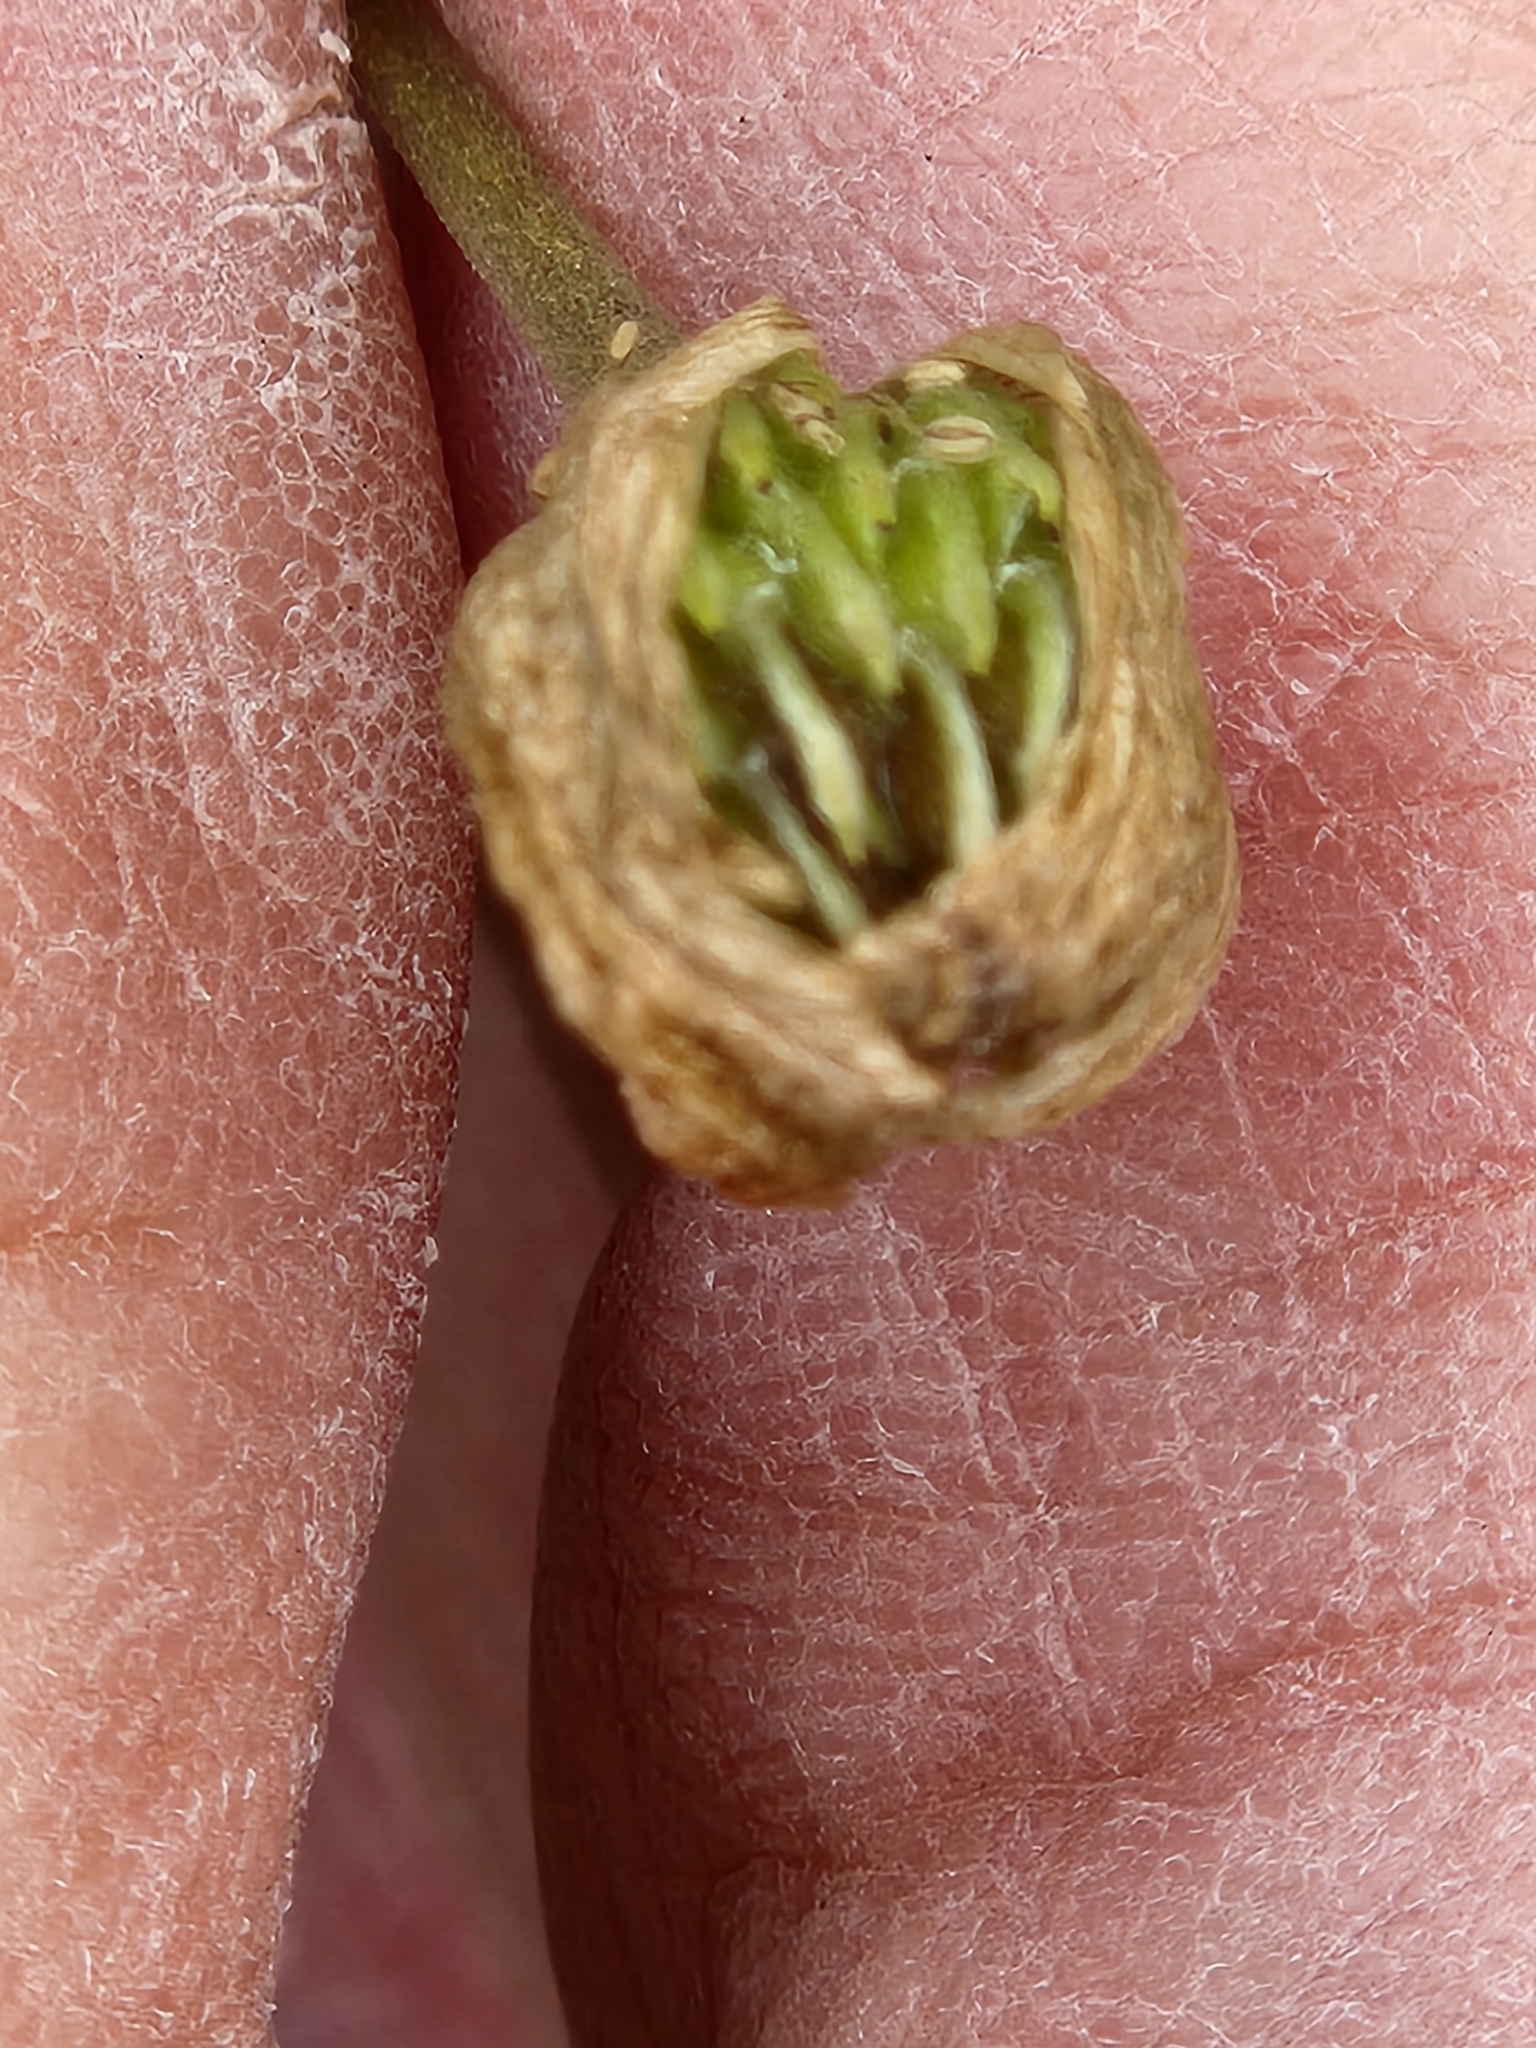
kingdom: Plantae
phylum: Tracheophyta
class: Magnoliopsida
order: Ranunculales
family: Ranunculaceae
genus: Anemone
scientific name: Anemone edwardsiana
